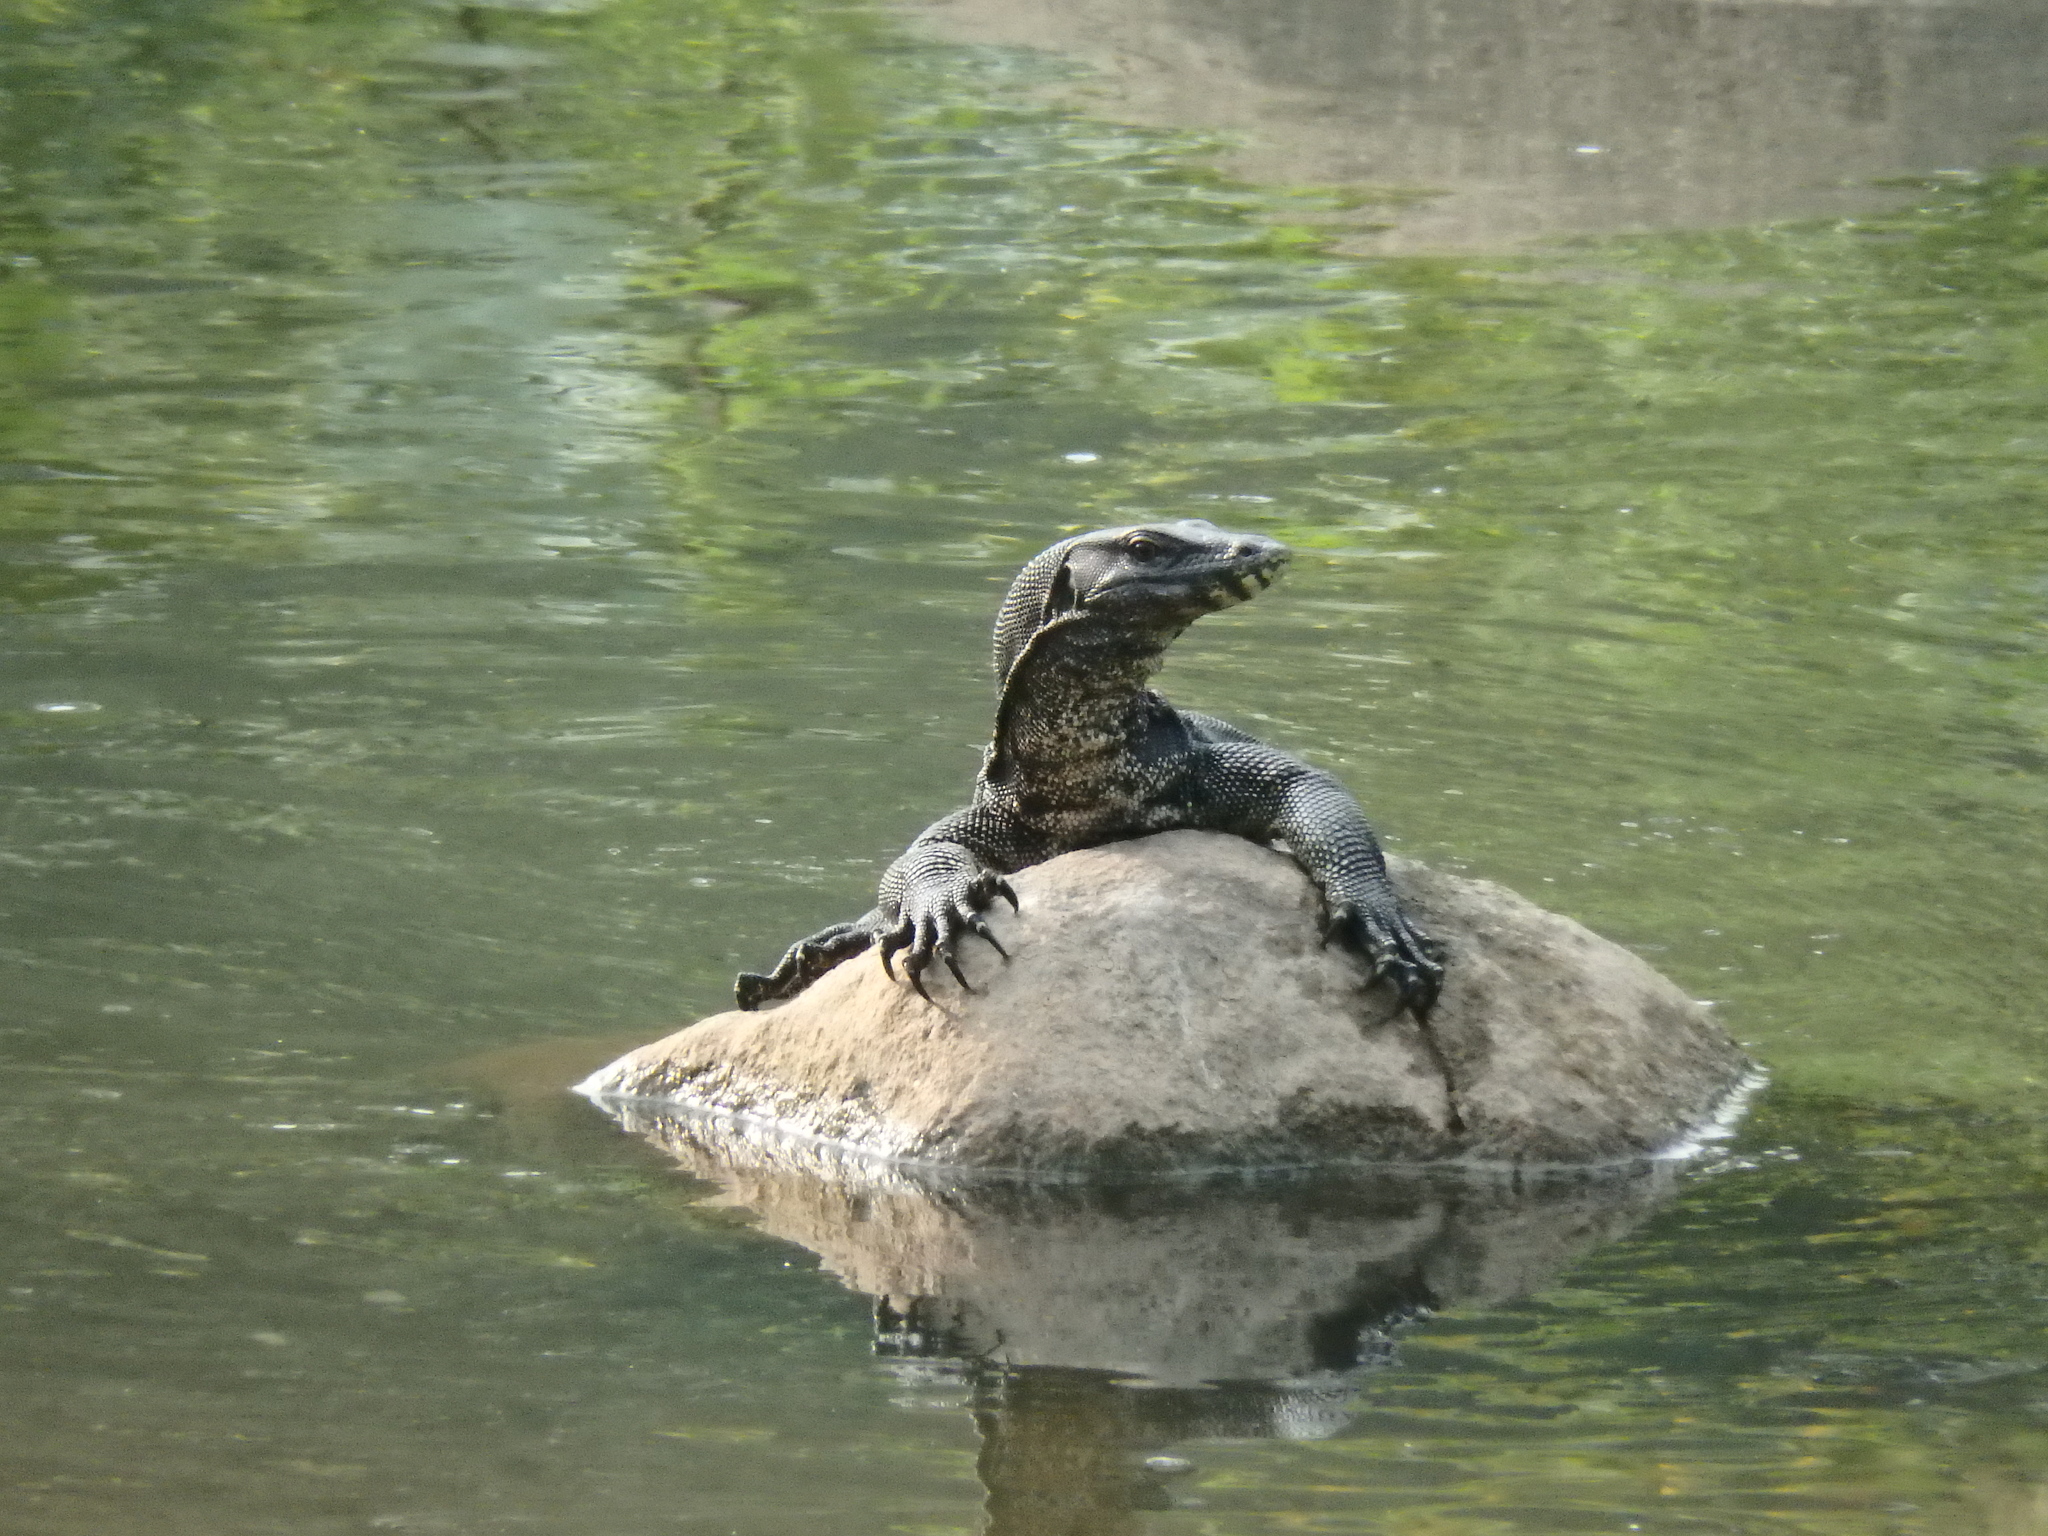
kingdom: Animalia
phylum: Chordata
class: Squamata
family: Varanidae
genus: Varanus
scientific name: Varanus salvator
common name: Common water monitor
